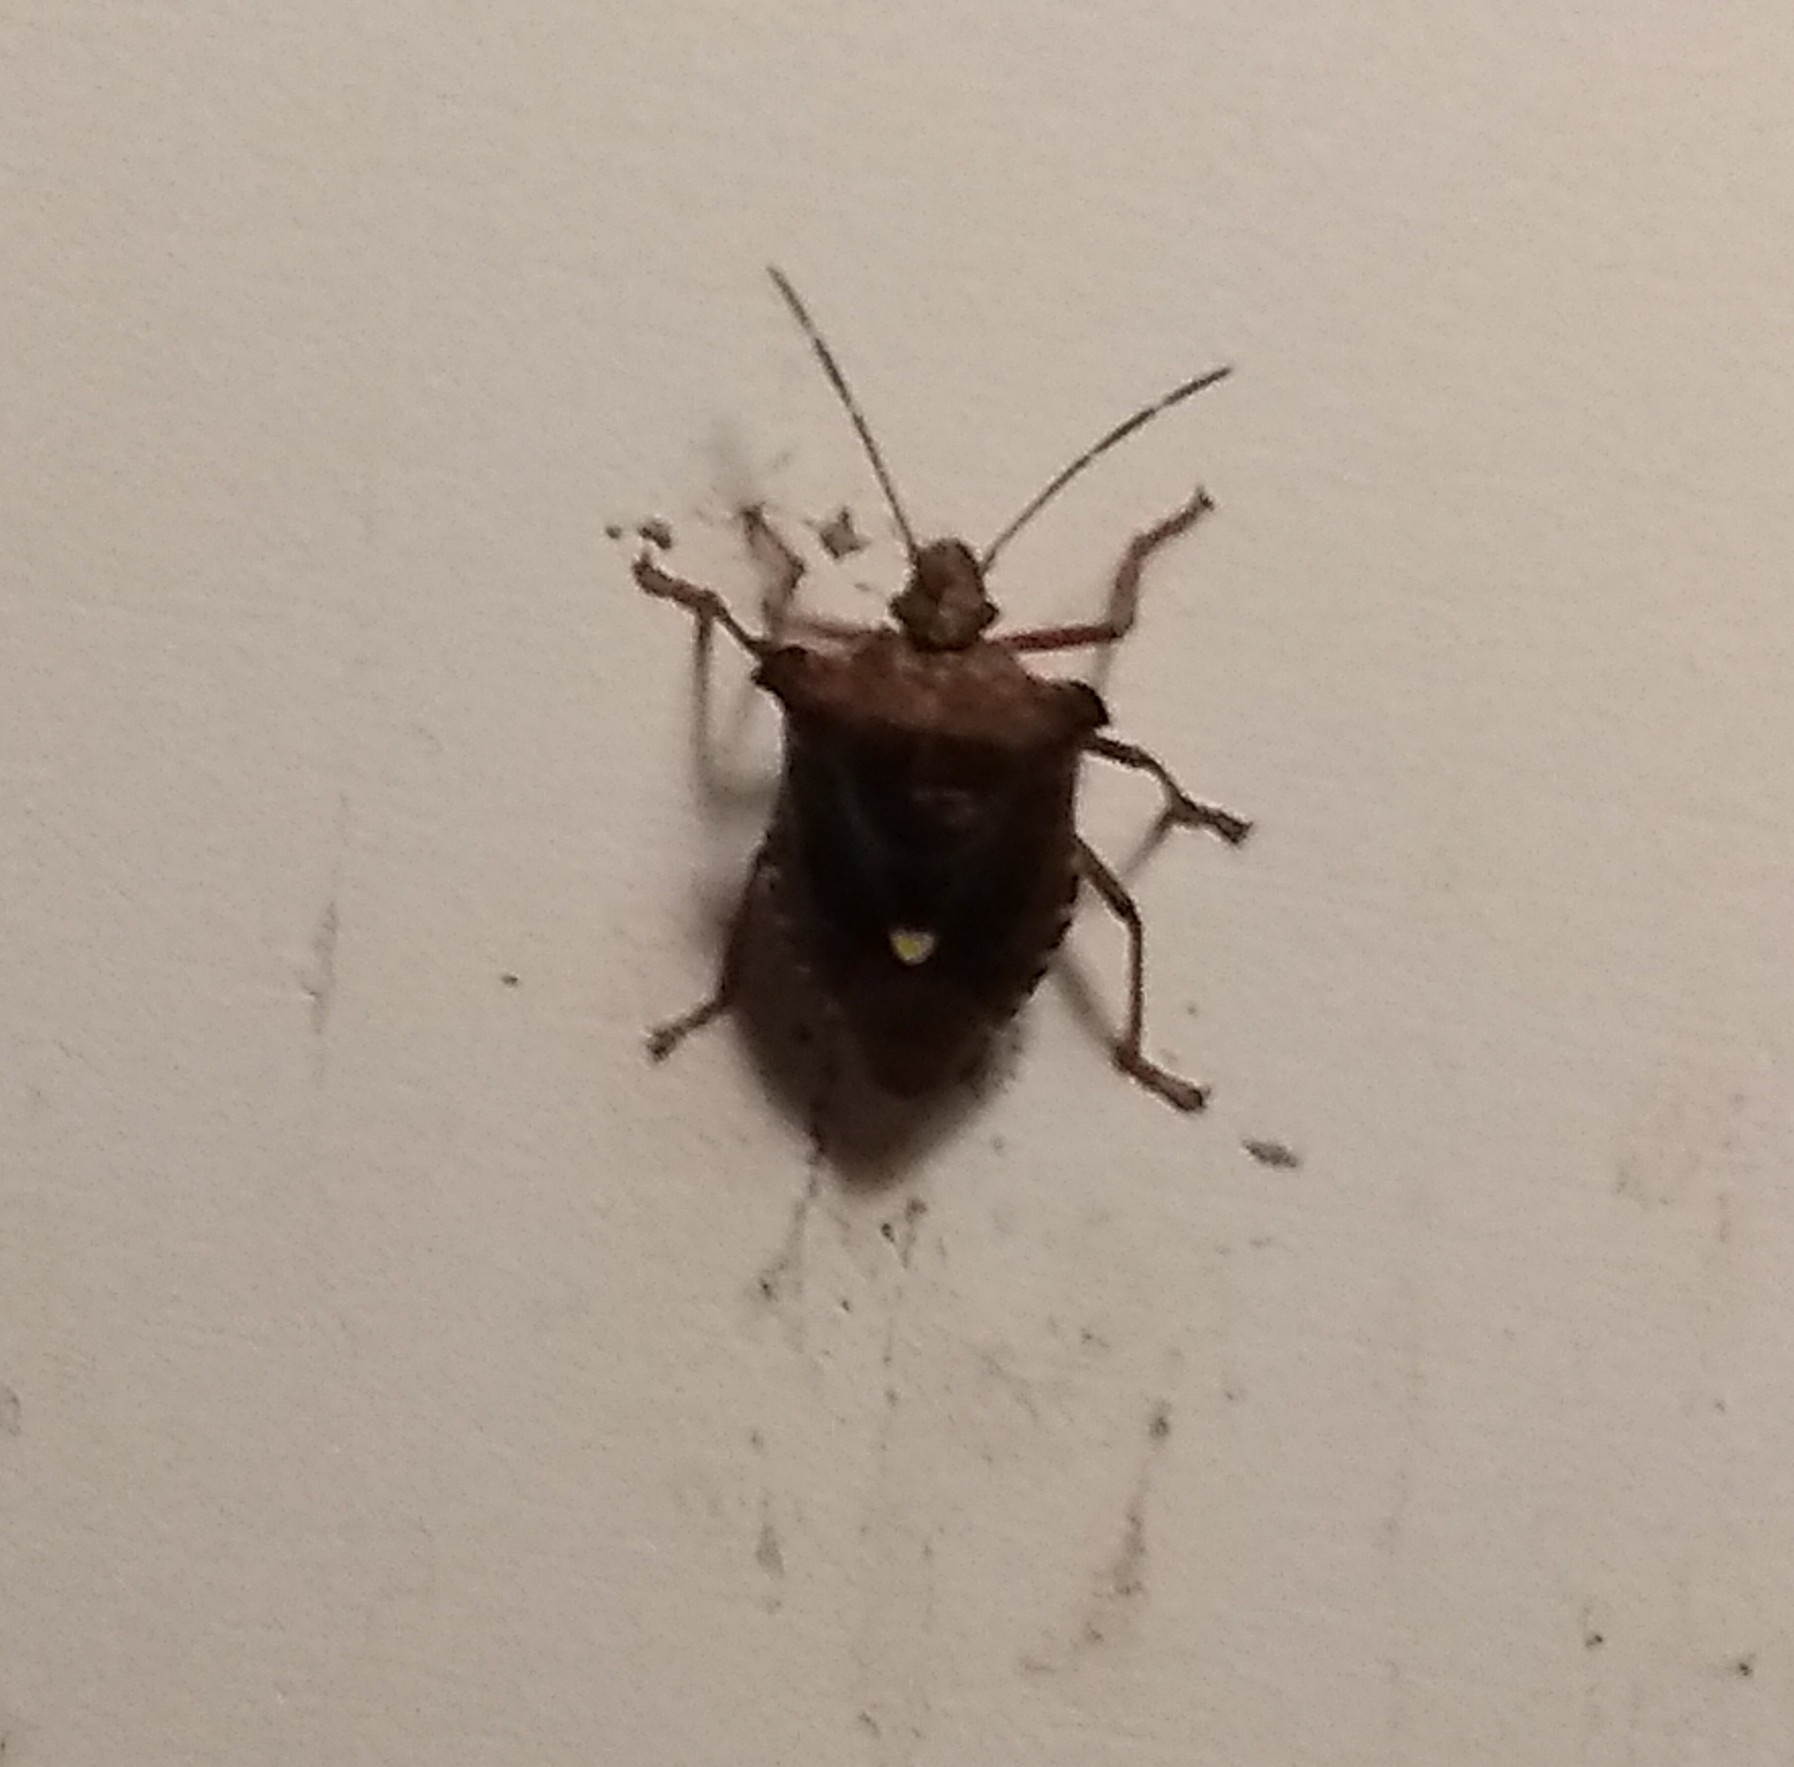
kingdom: Animalia
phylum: Arthropoda
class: Insecta
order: Hemiptera
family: Pentatomidae
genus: Pentatoma
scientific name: Pentatoma rufipes
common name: Forest bug
